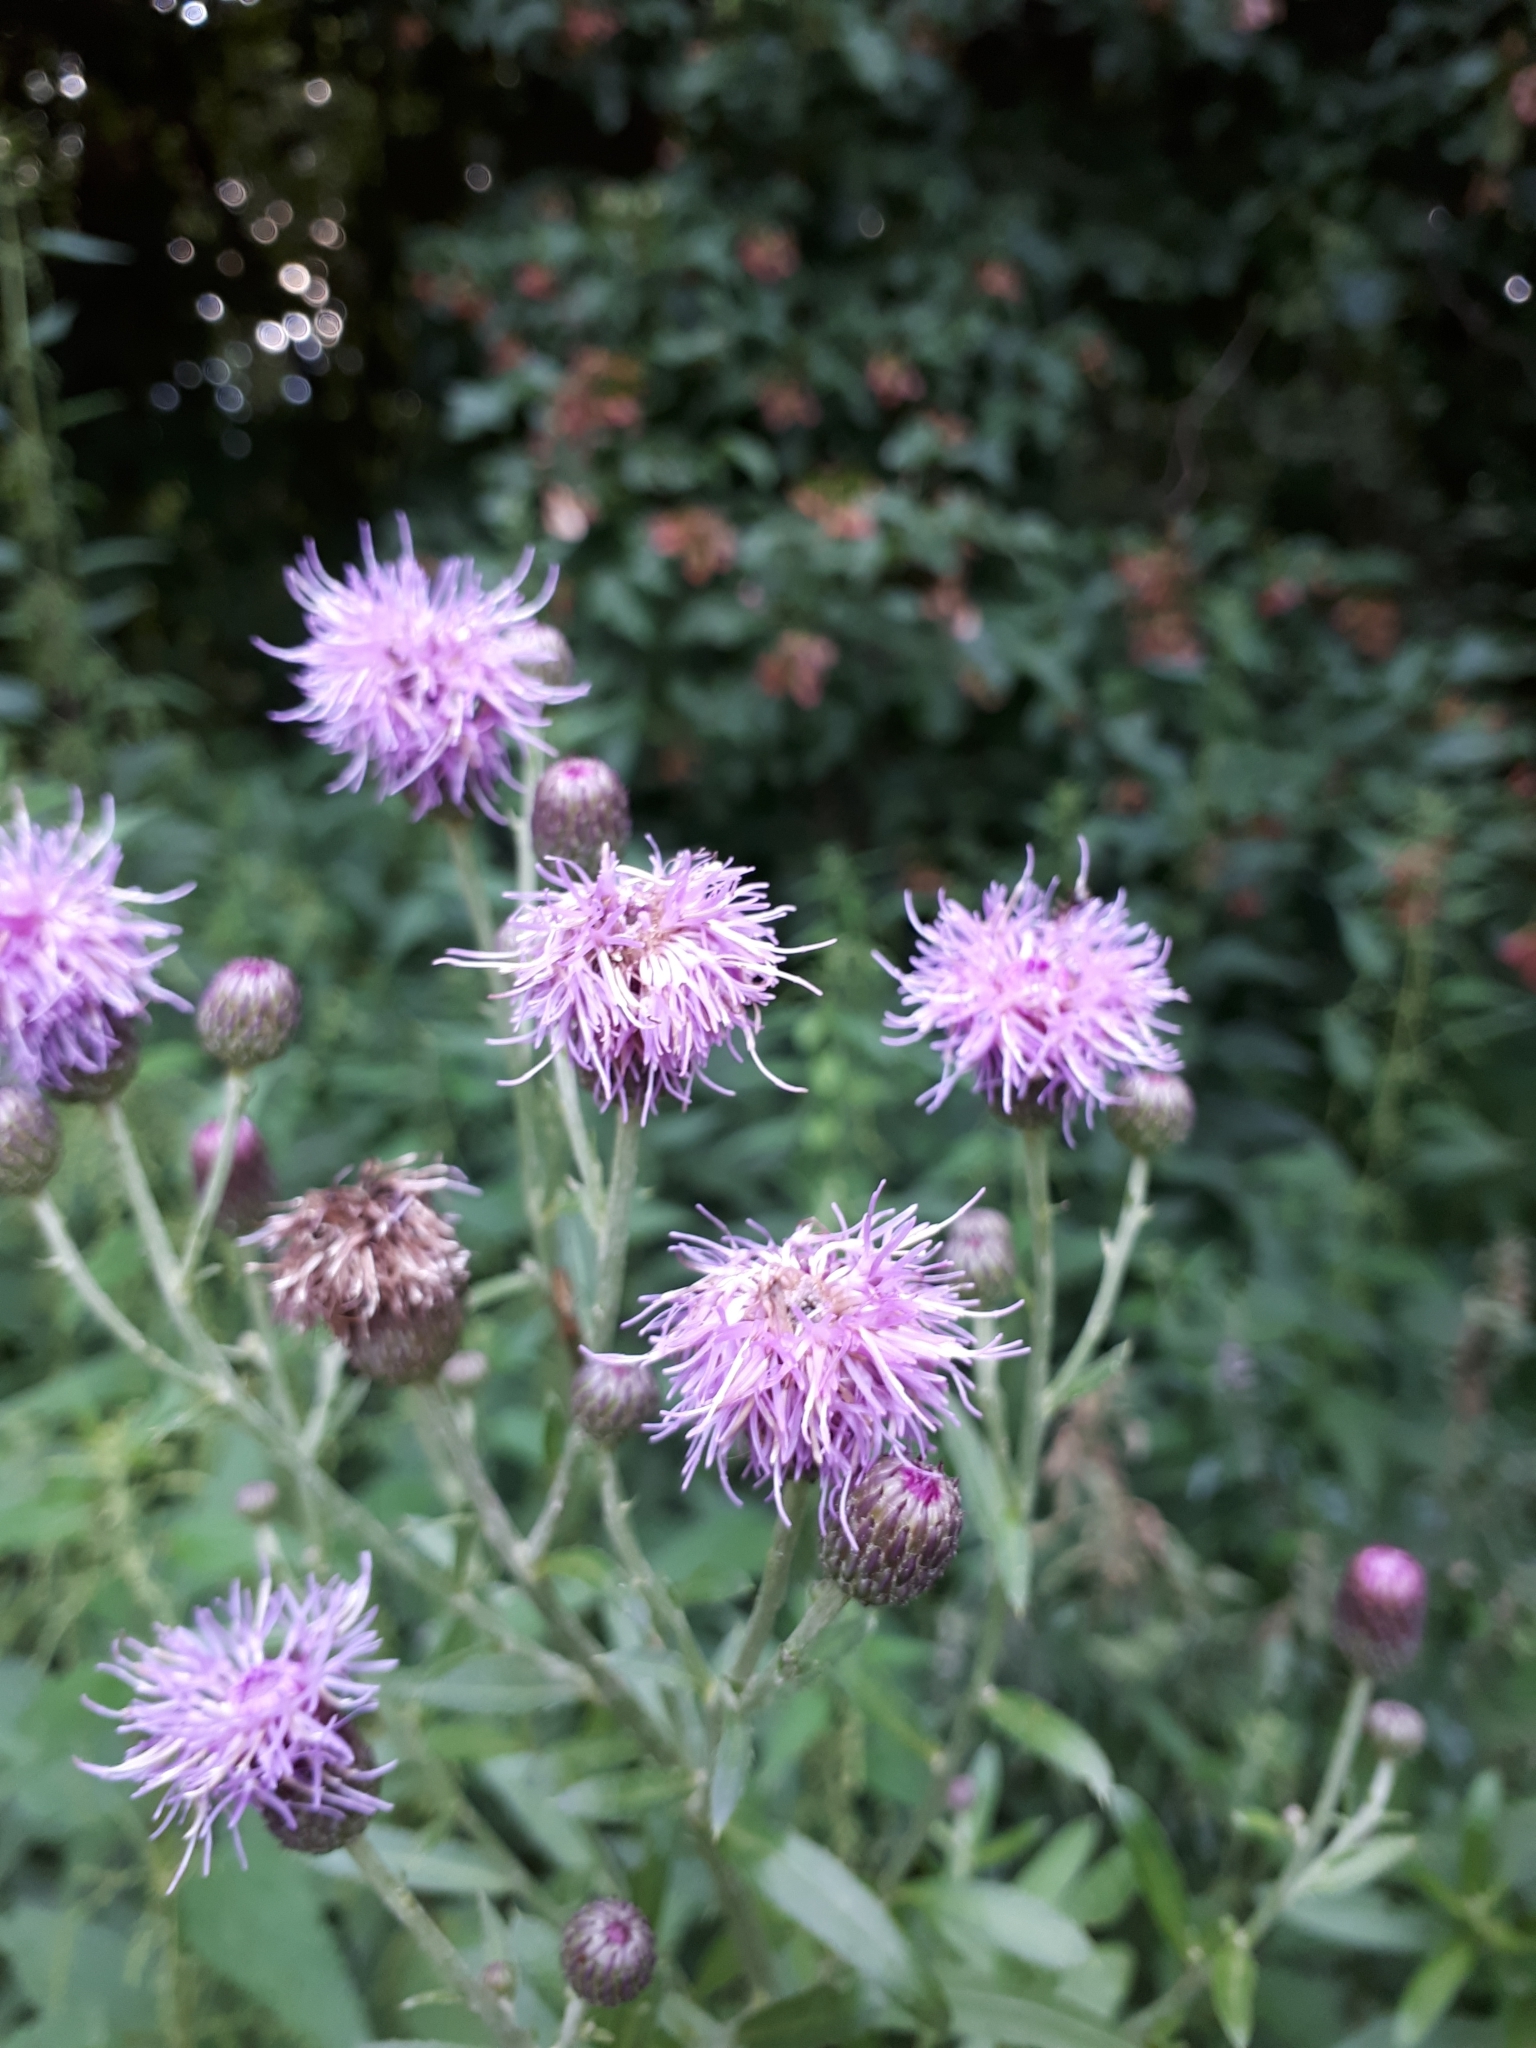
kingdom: Plantae
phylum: Tracheophyta
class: Magnoliopsida
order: Asterales
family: Asteraceae
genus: Cirsium
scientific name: Cirsium arvense
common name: Creeping thistle
